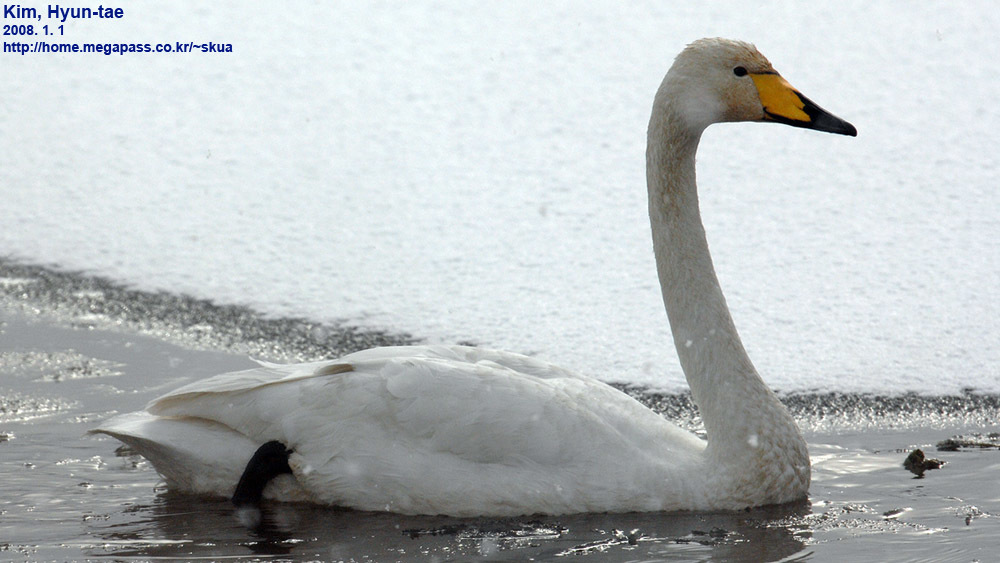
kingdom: Animalia
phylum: Chordata
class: Aves
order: Anseriformes
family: Anatidae
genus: Cygnus
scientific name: Cygnus cygnus
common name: Whooper swan
